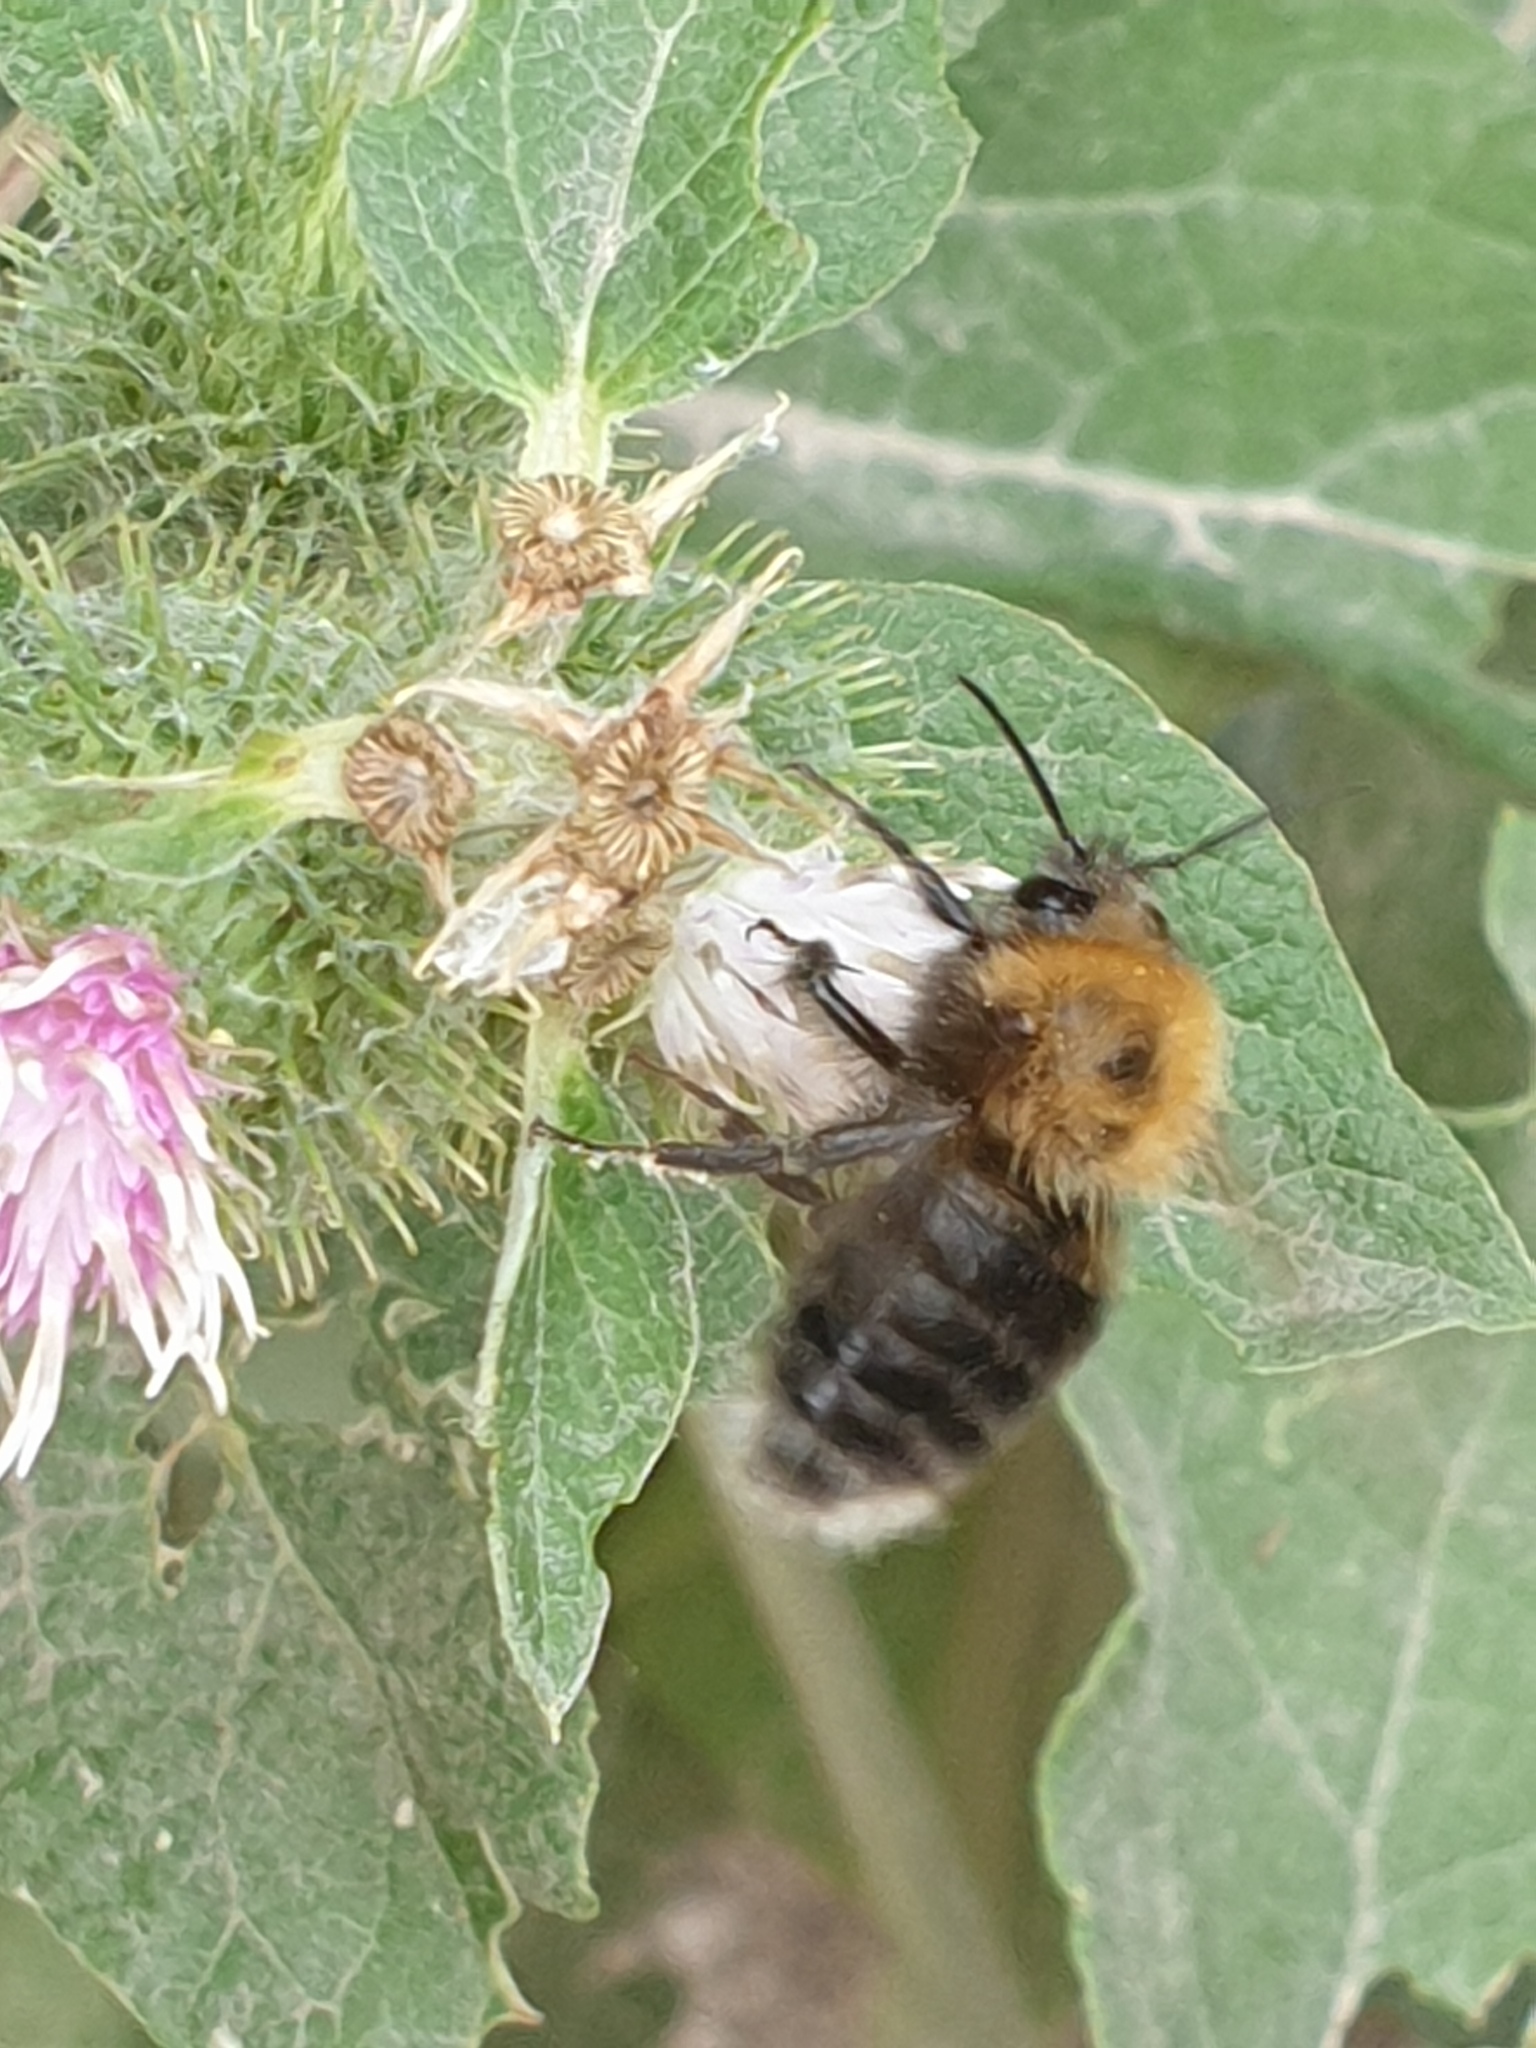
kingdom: Animalia
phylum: Arthropoda
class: Insecta
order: Hymenoptera
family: Apidae
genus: Bombus
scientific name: Bombus hypnorum
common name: New garden bumblebee
